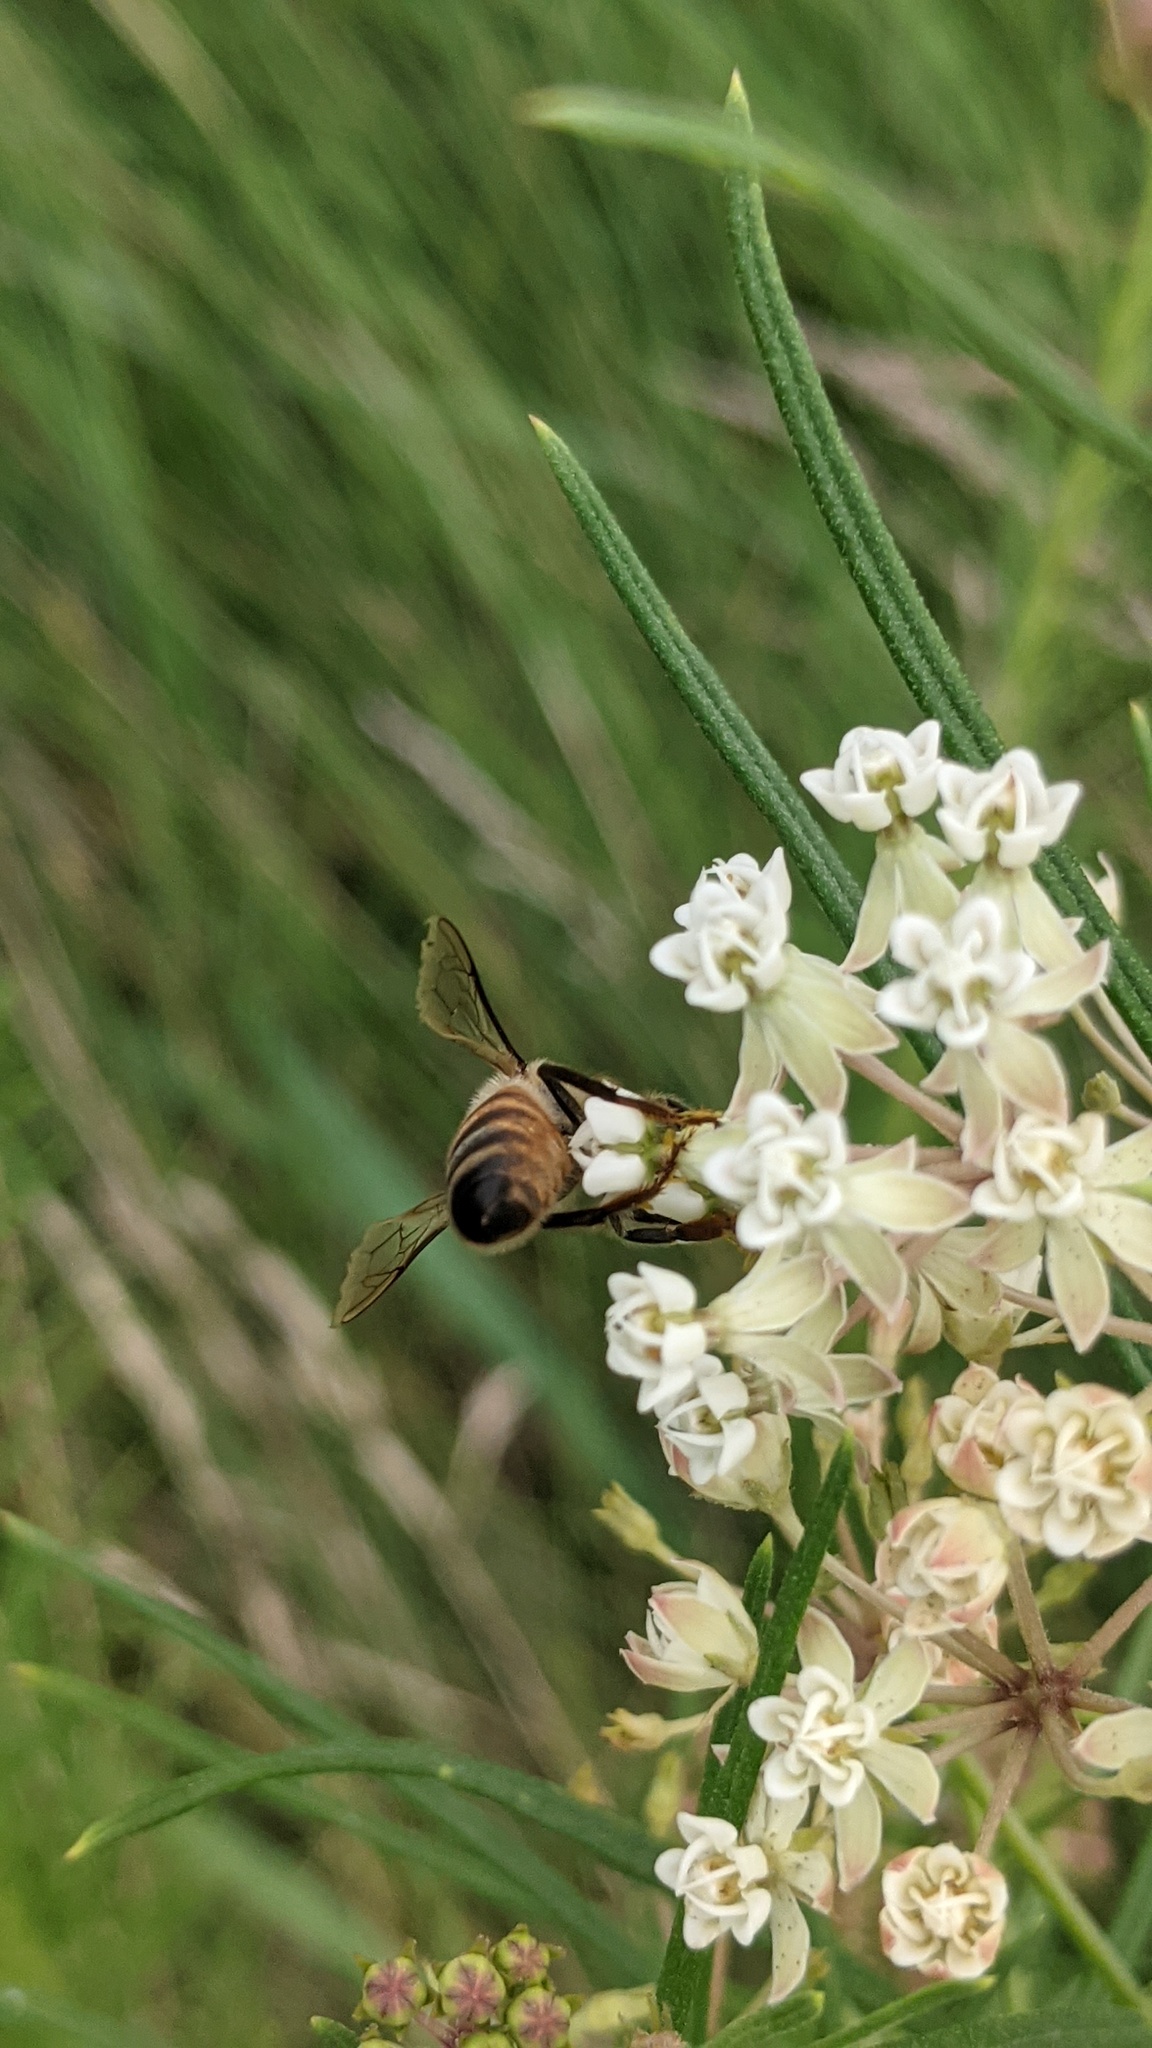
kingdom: Animalia
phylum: Arthropoda
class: Insecta
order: Hymenoptera
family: Apidae
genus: Apis
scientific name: Apis mellifera
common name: Honey bee
